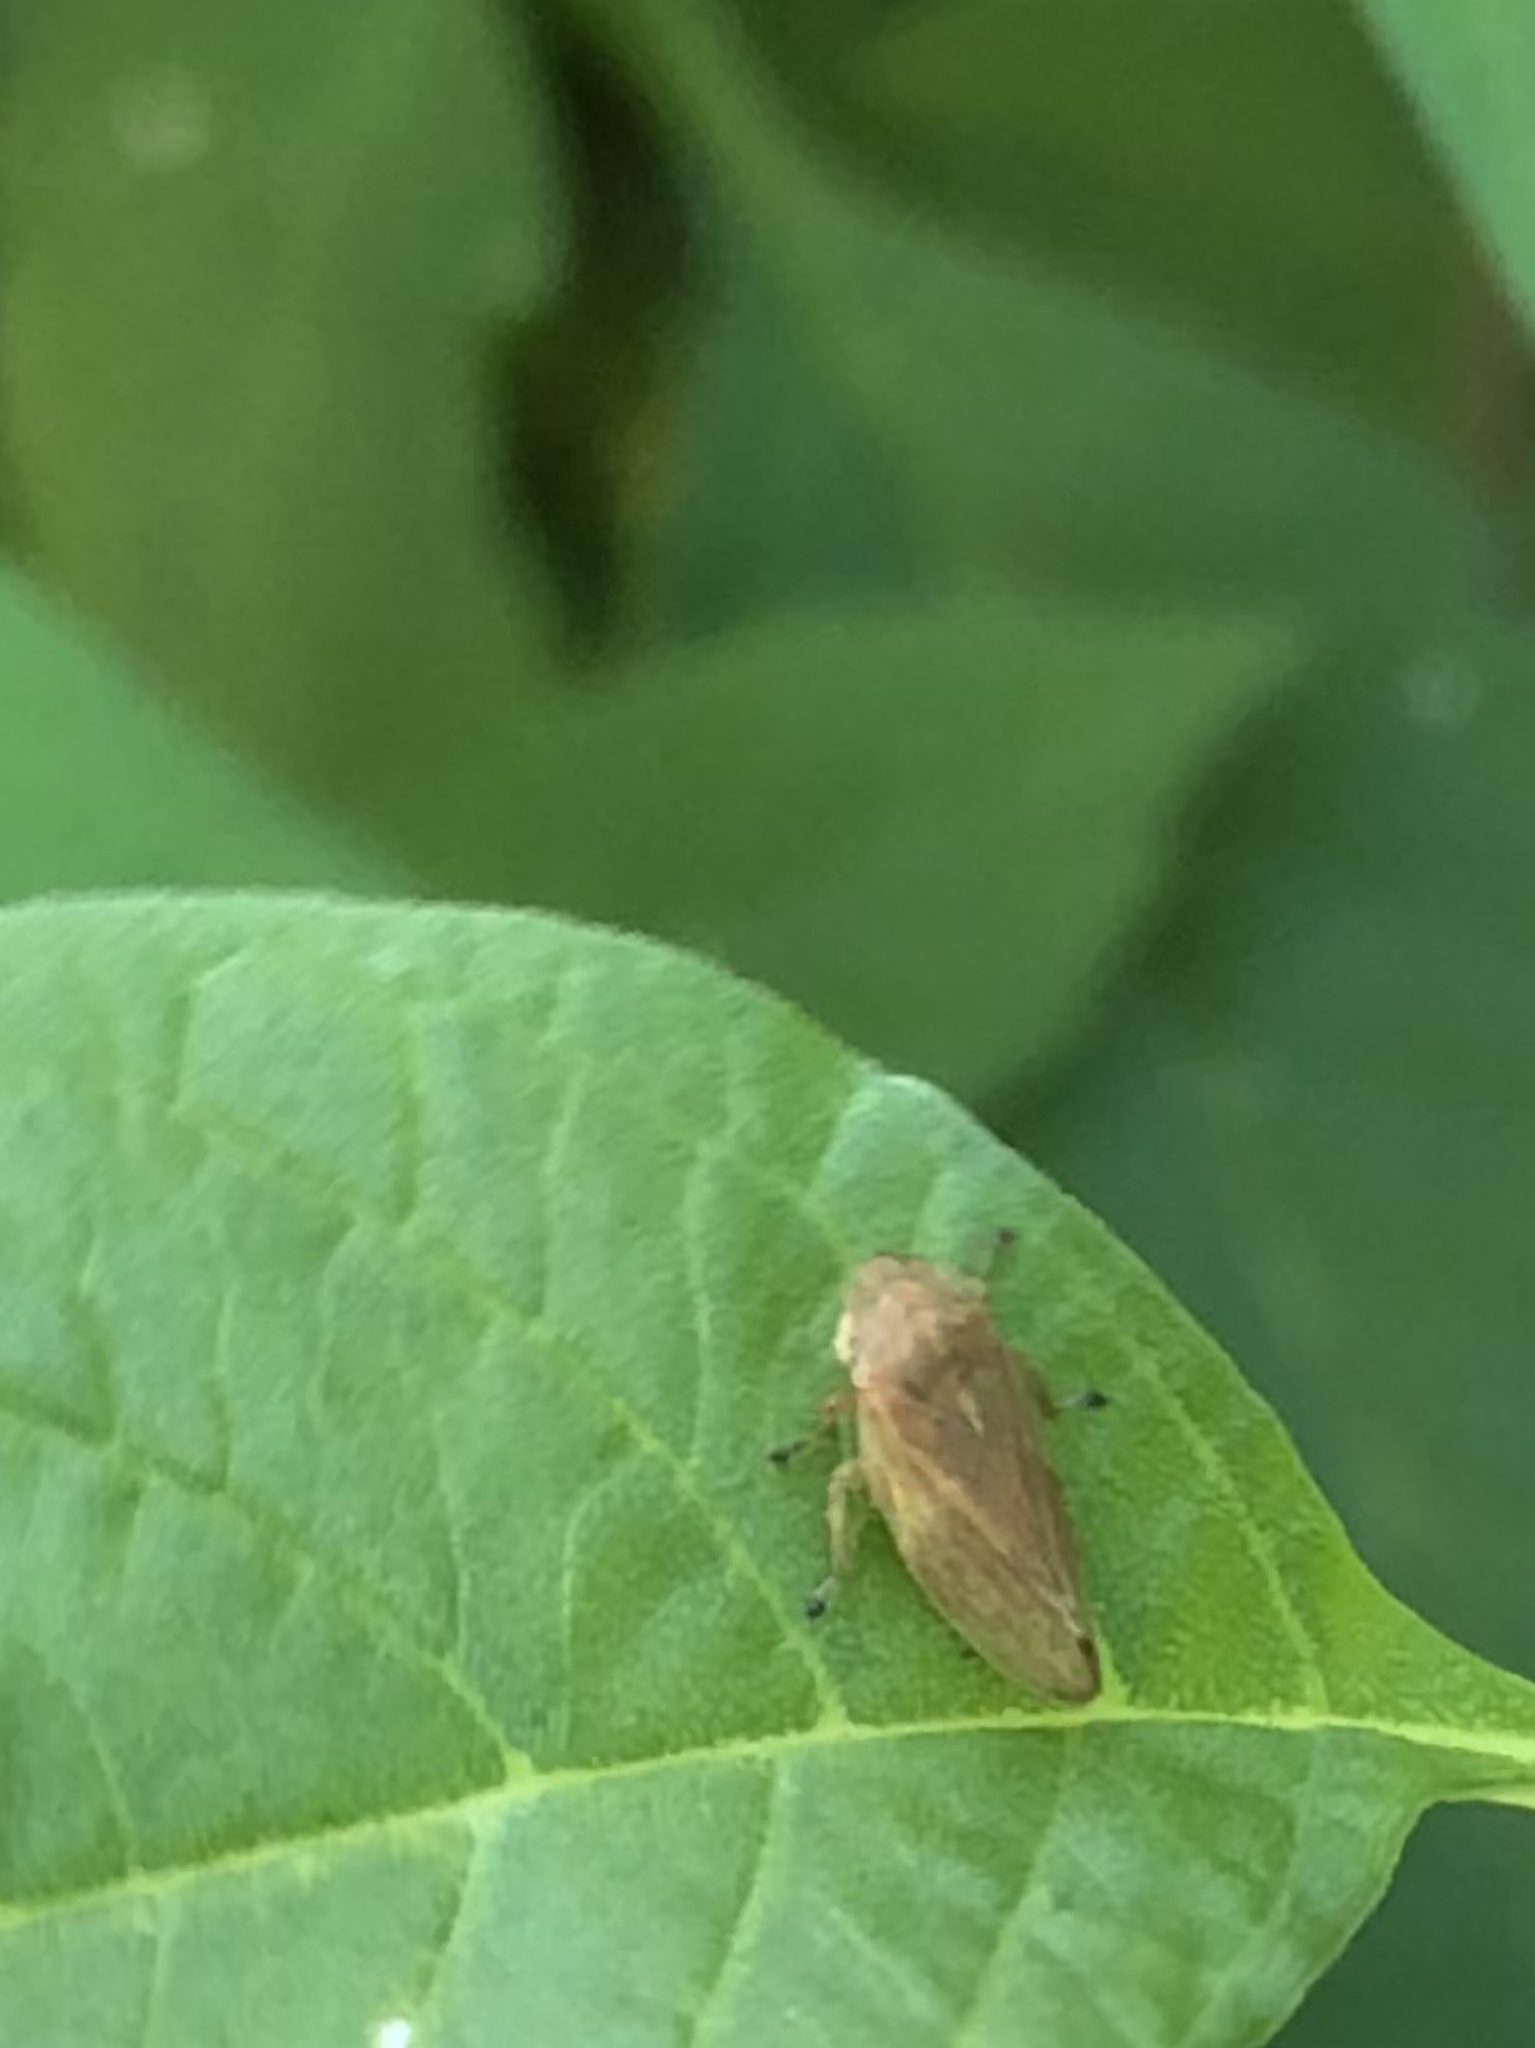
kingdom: Animalia
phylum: Arthropoda
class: Insecta
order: Hemiptera
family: Aphrophoridae
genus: Philaenus
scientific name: Philaenus spumarius
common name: Meadow spittlebug
